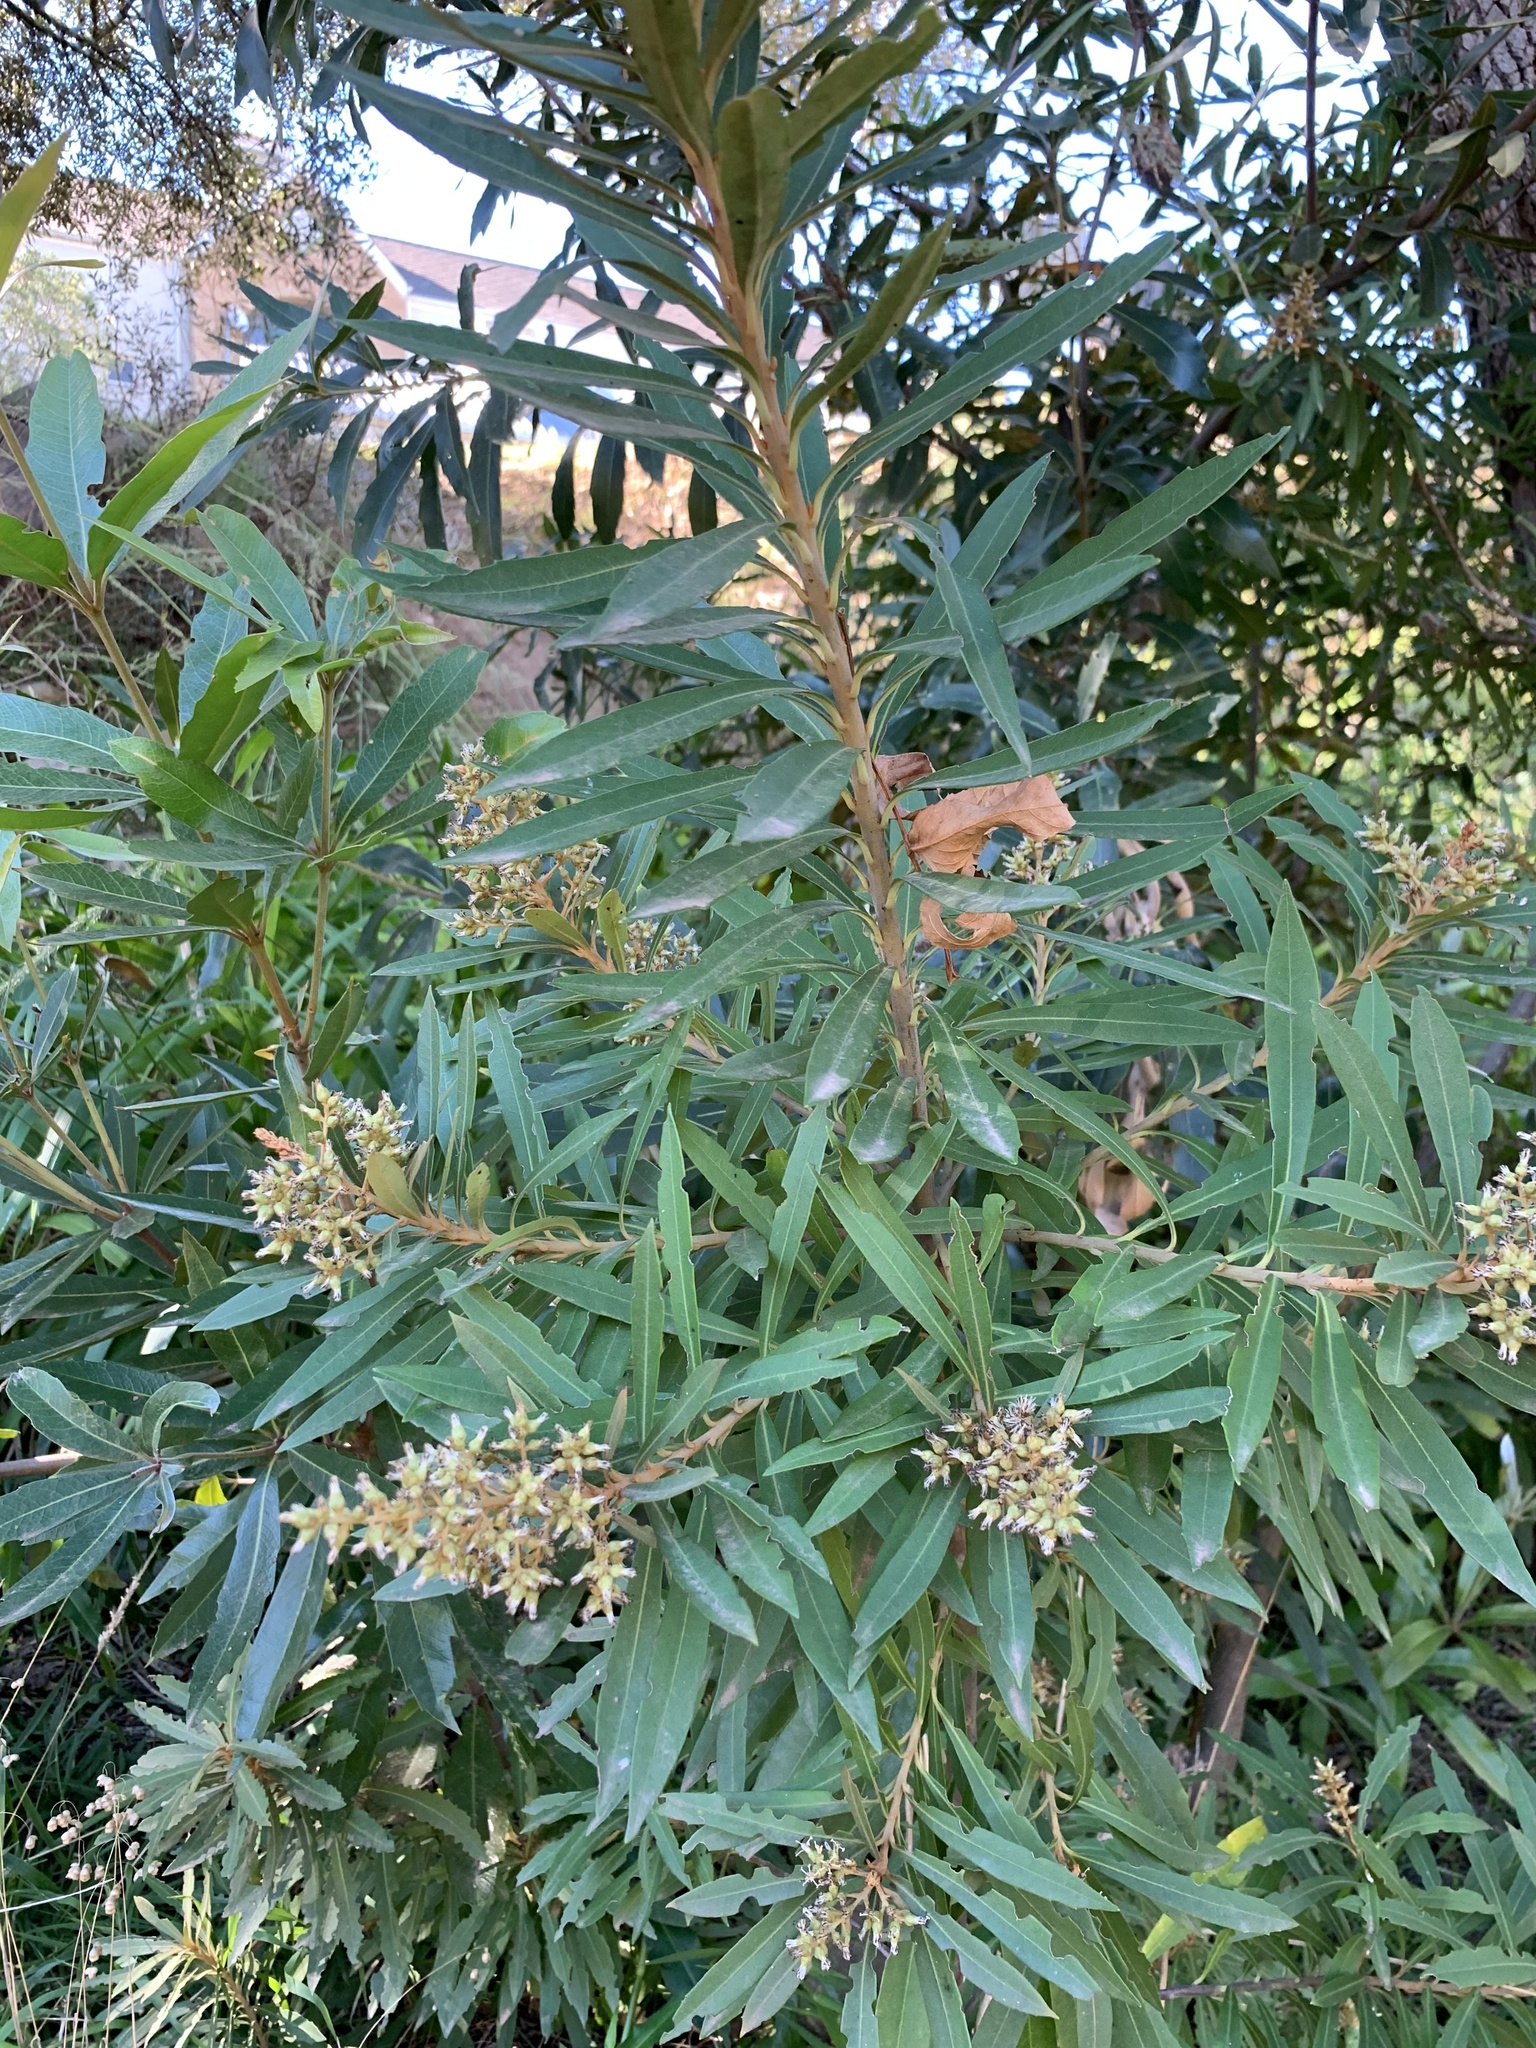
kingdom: Plantae
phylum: Tracheophyta
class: Magnoliopsida
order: Asterales
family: Asteraceae
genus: Brachylaena
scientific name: Brachylaena neriifolia
